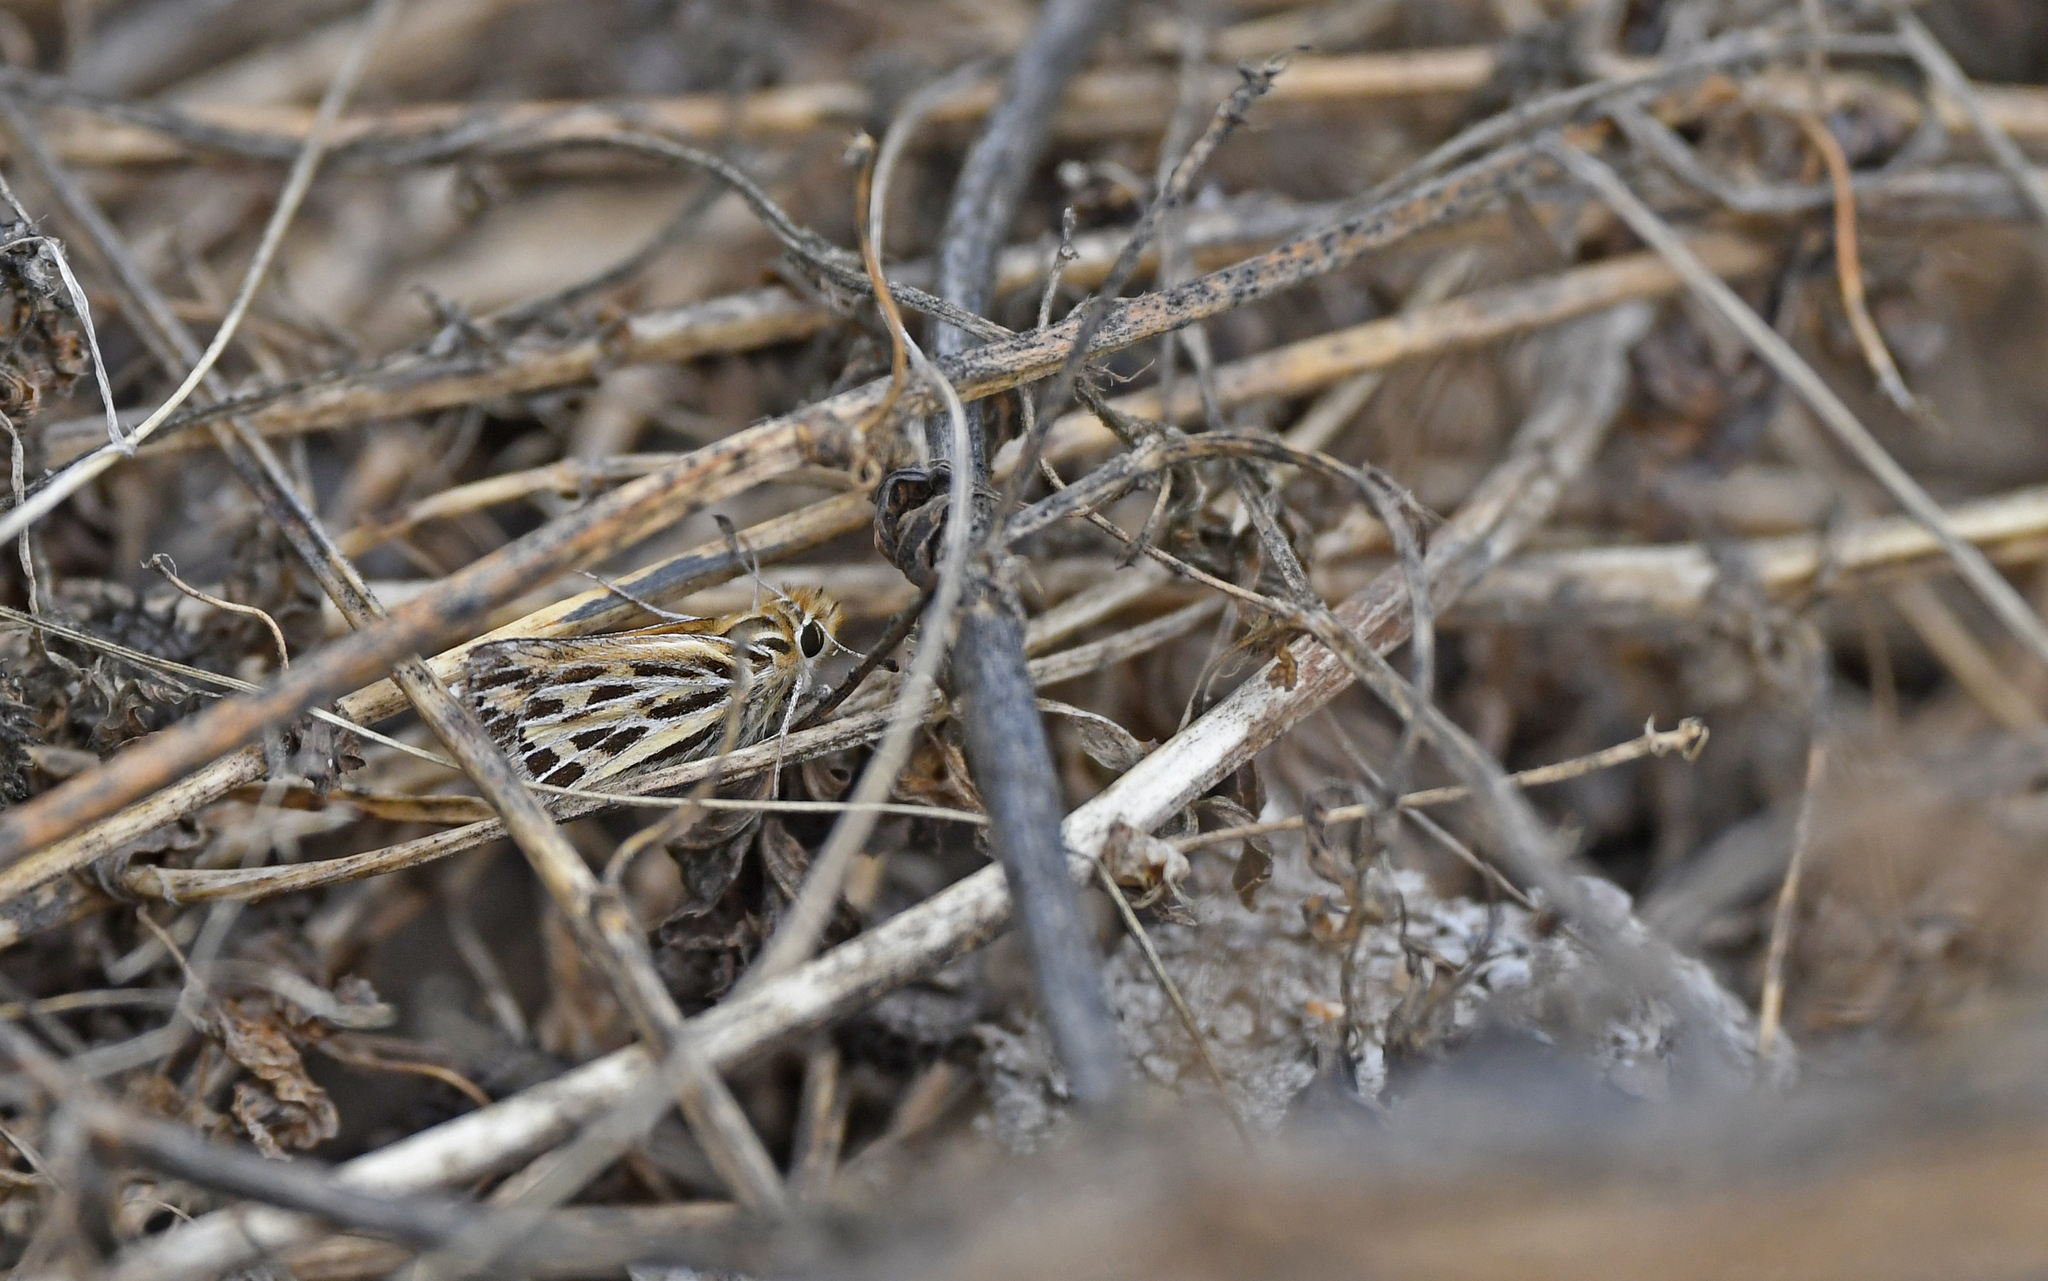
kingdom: Animalia
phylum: Arthropoda
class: Insecta
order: Lepidoptera
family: Hesperiidae
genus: Hylephila
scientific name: Hylephila boulleti
